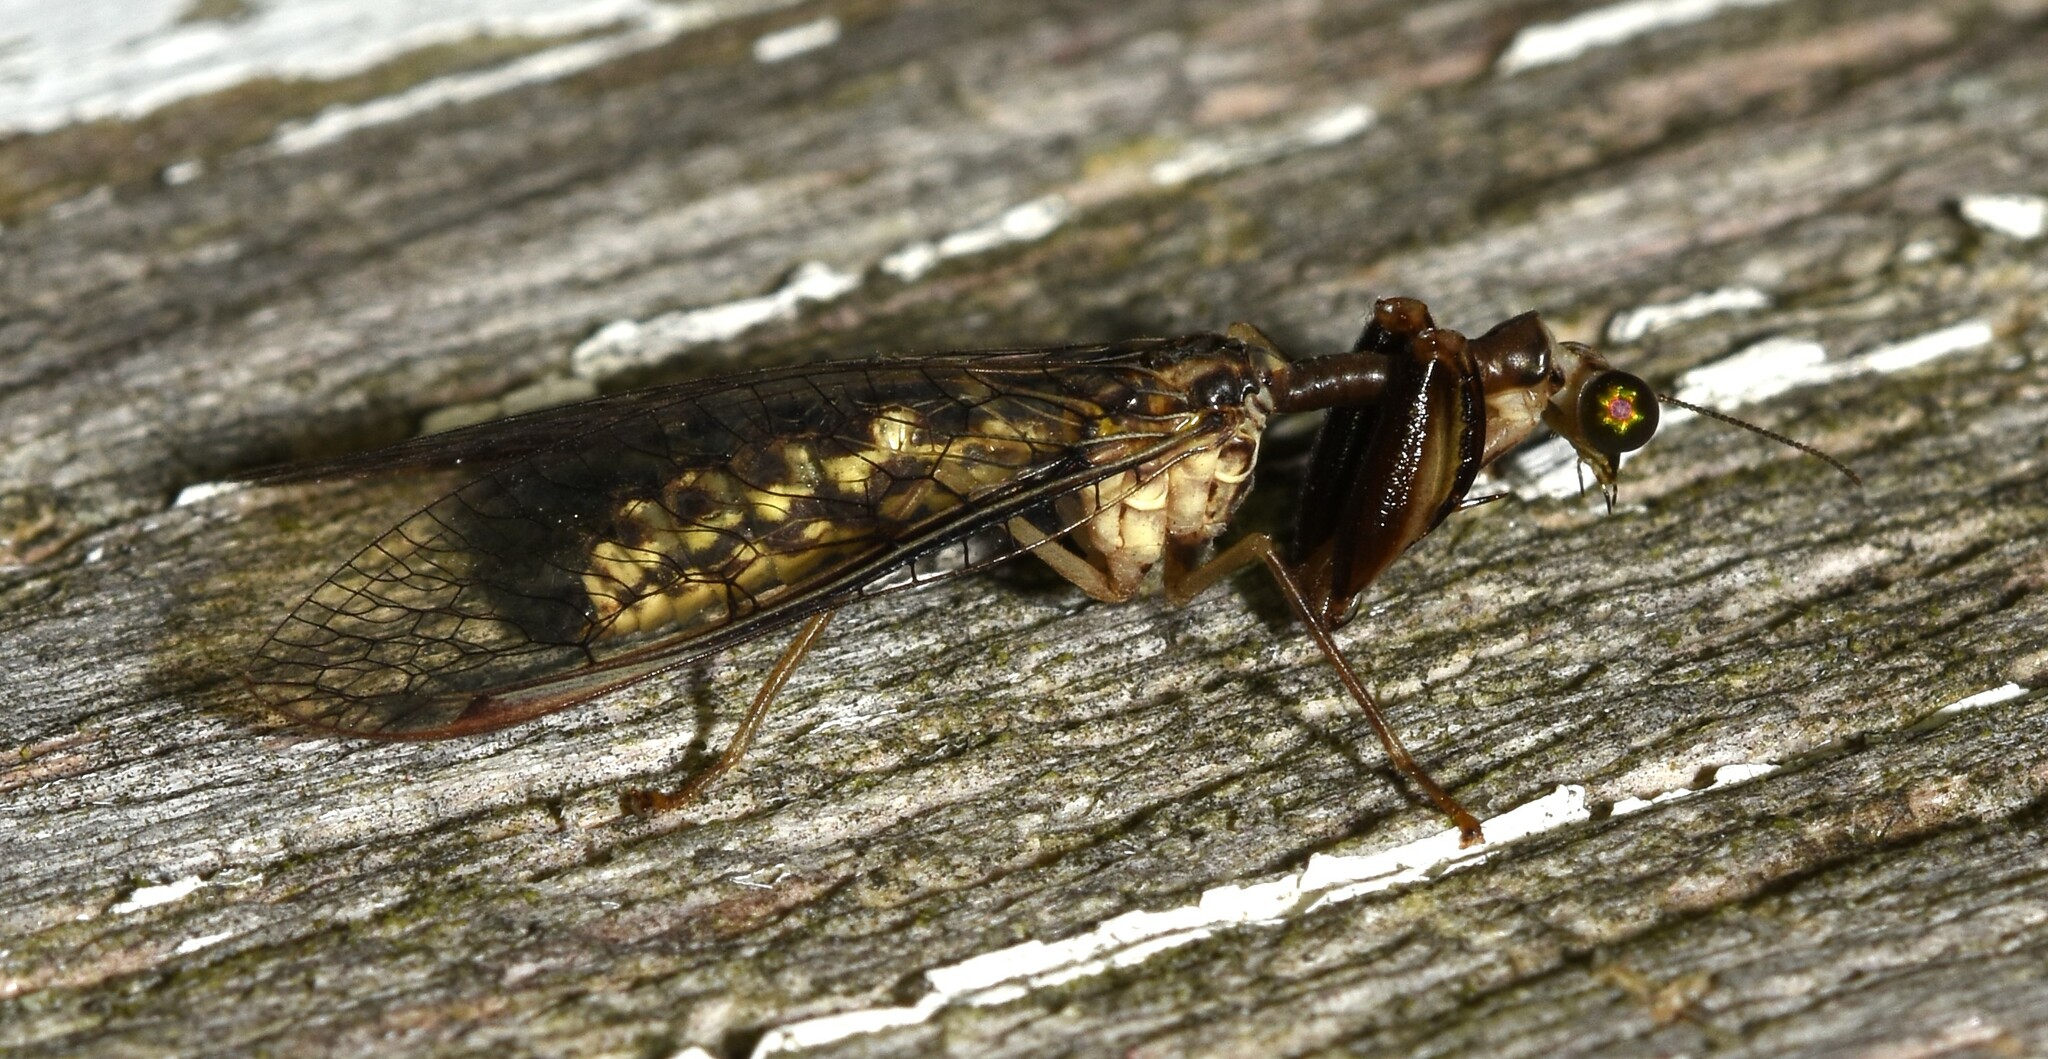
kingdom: Animalia
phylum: Arthropoda
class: Insecta
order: Neuroptera
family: Mantispidae
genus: Dicromantispa
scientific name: Dicromantispa sayi
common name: Say's mantidfly
